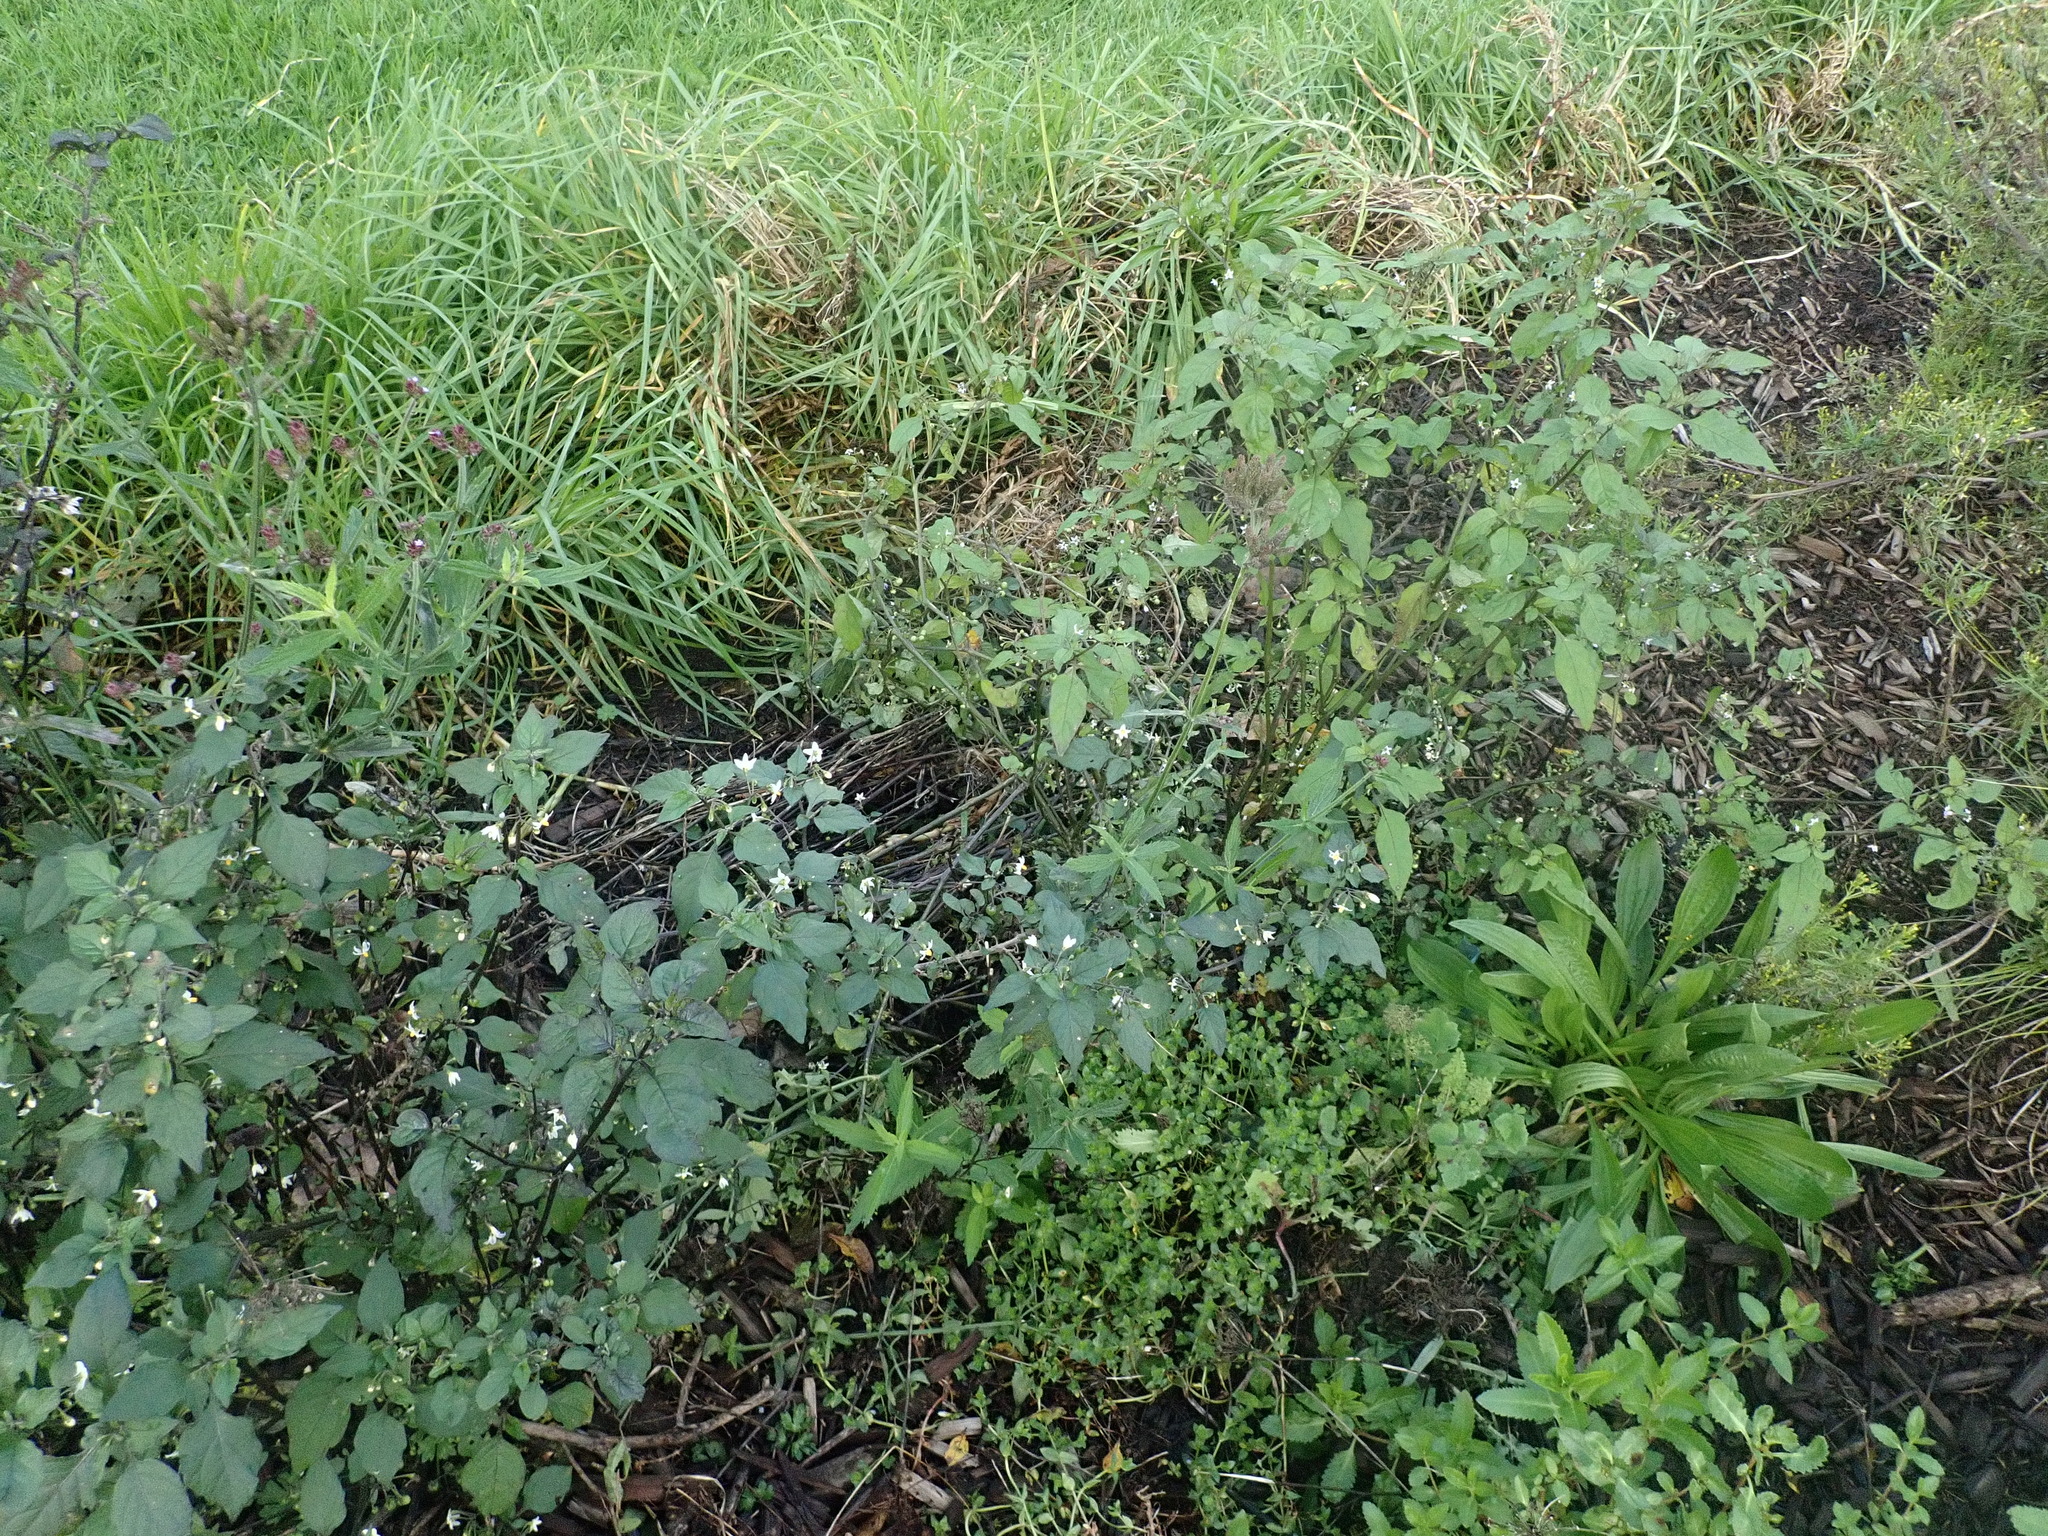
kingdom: Plantae
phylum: Tracheophyta
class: Magnoliopsida
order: Solanales
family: Solanaceae
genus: Solanum
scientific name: Solanum nigrum
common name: Black nightshade
